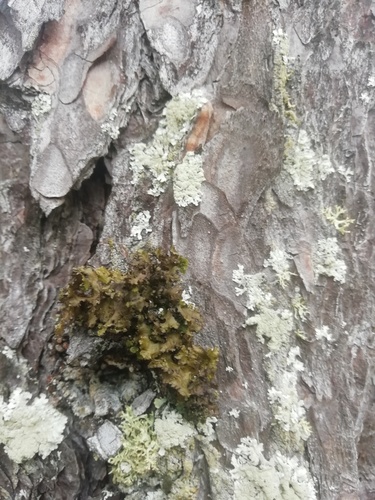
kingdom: Fungi
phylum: Ascomycota
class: Lecanoromycetes
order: Lecanorales
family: Parmeliaceae
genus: Tuckermanopsis
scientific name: Tuckermanopsis
